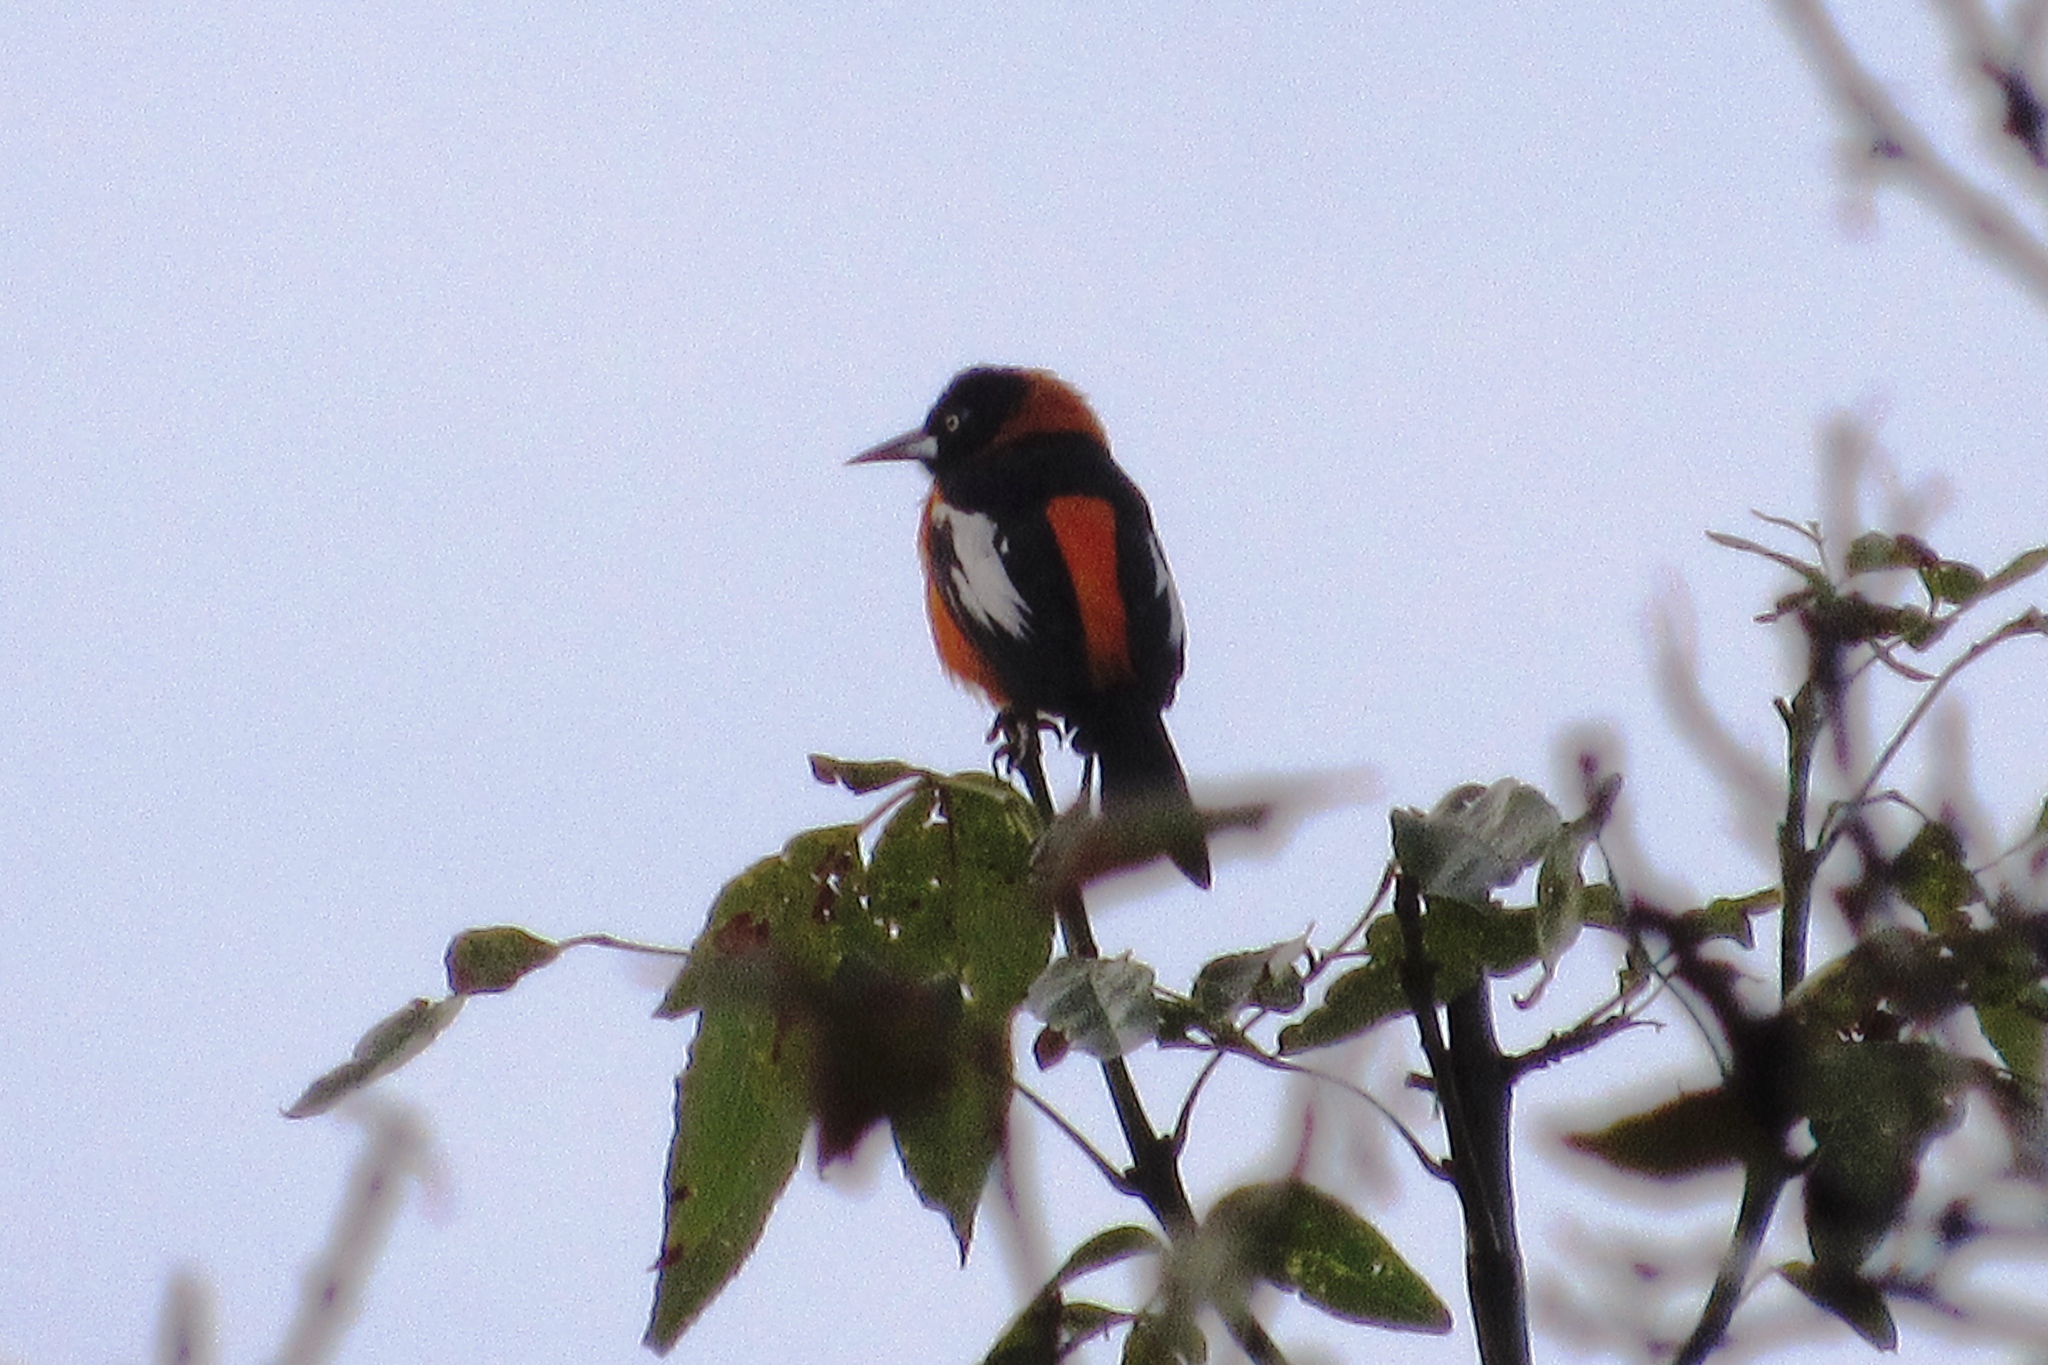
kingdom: Animalia
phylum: Chordata
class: Aves
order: Passeriformes
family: Icteridae
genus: Icterus
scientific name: Icterus icterus
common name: Venezuelan troupial
